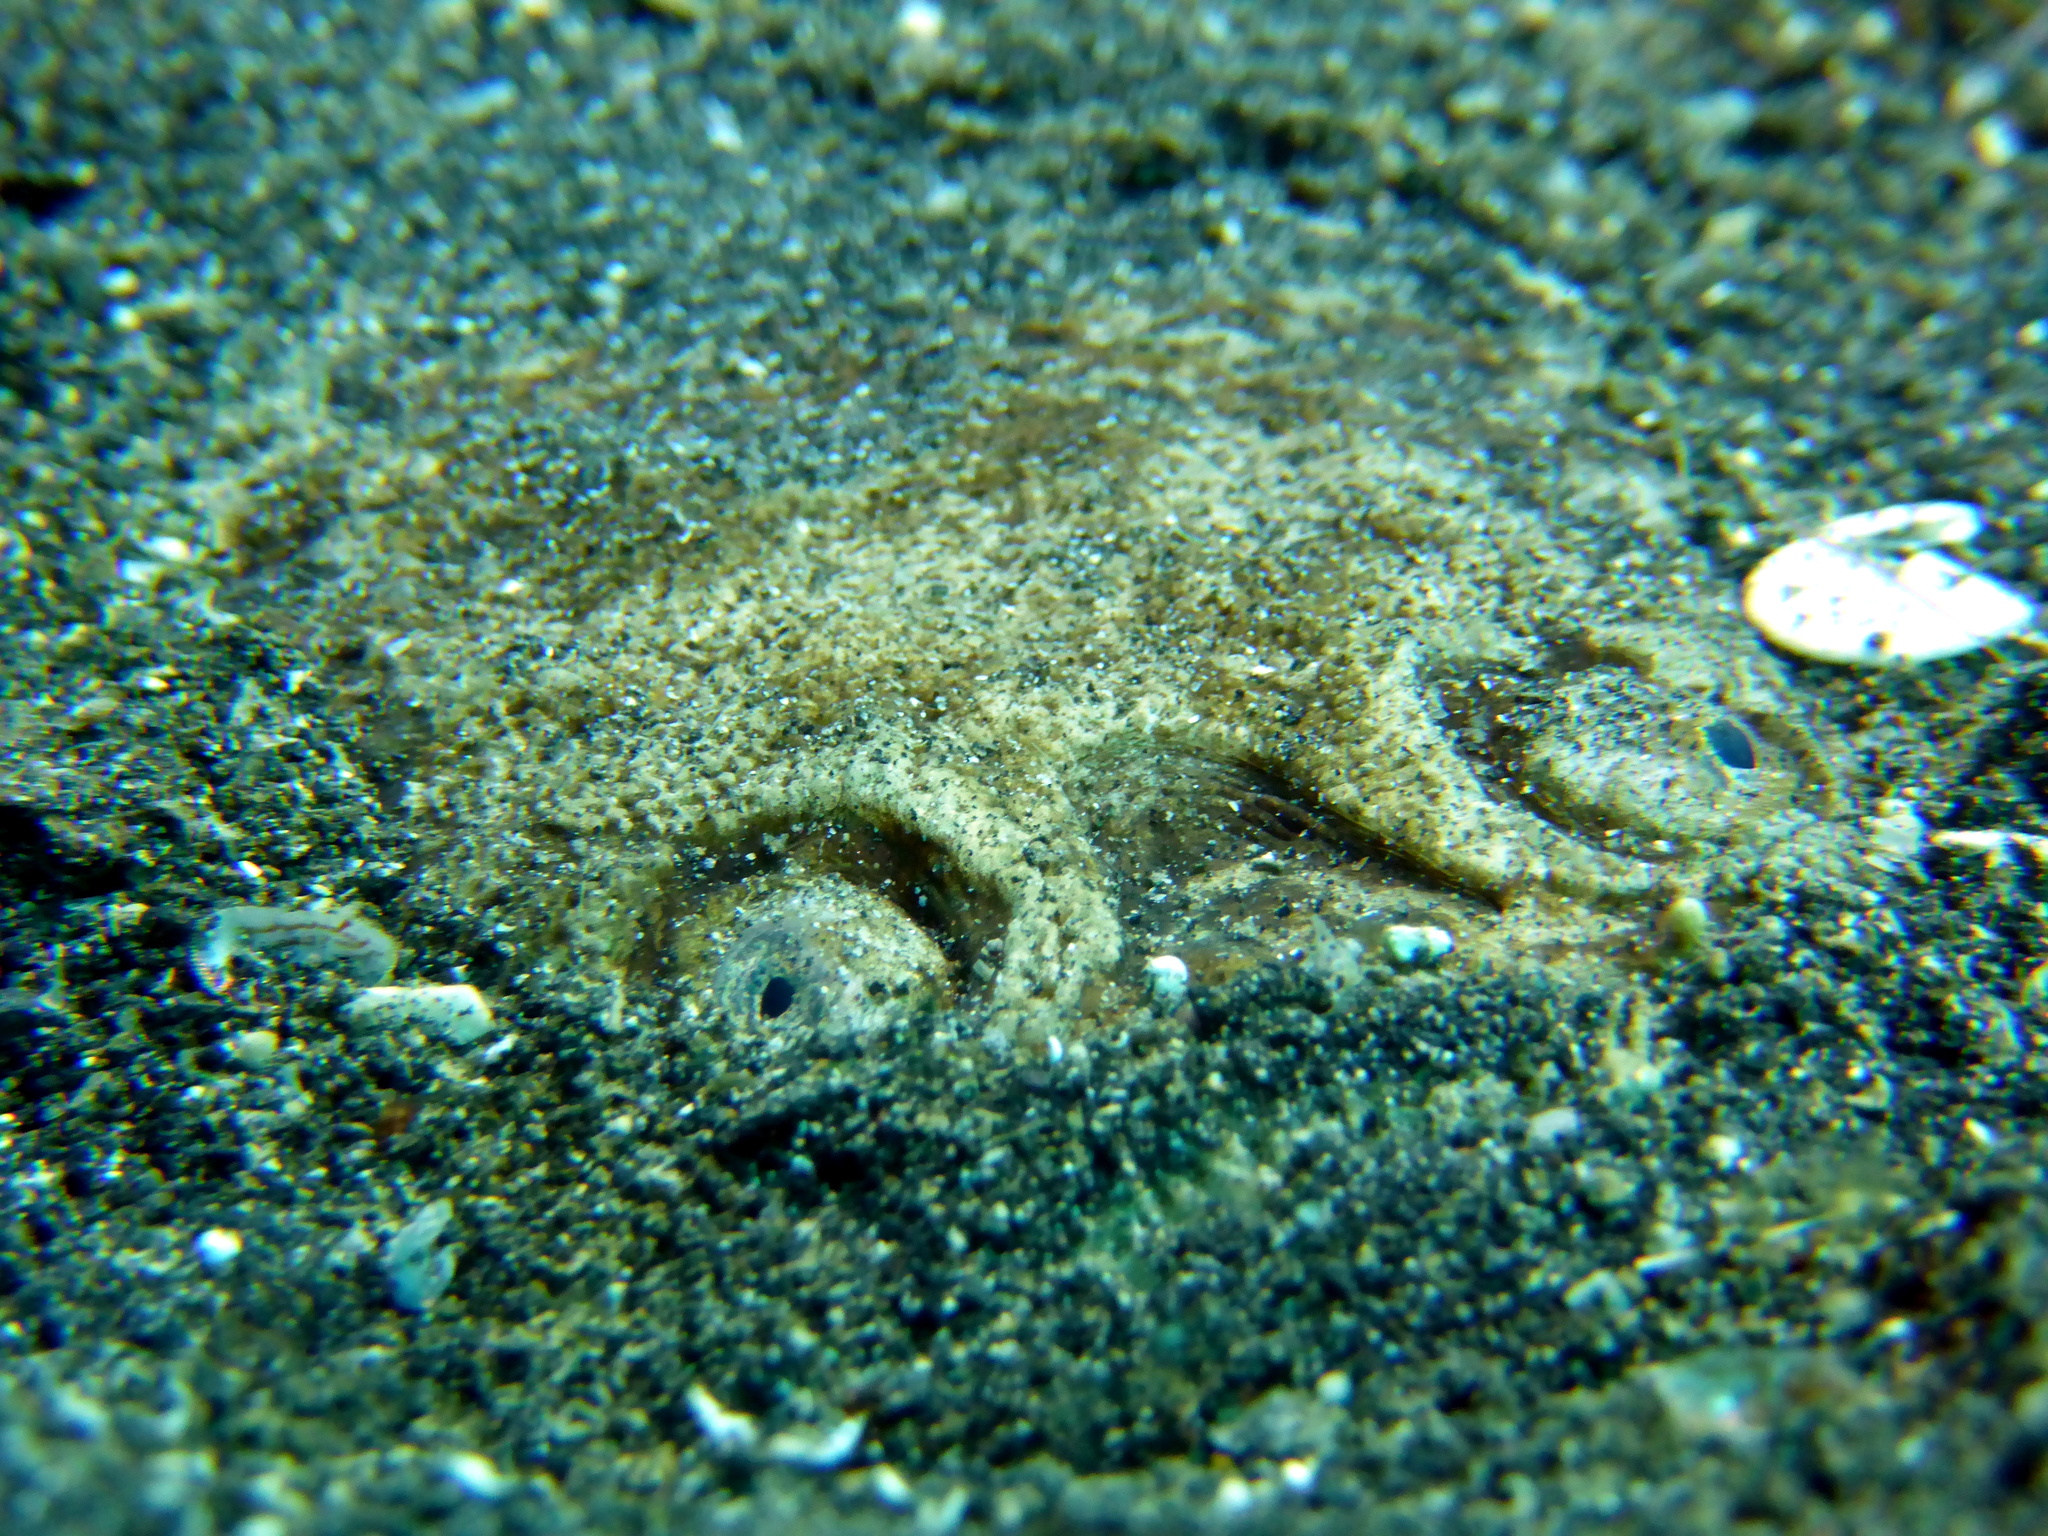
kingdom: Animalia
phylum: Chordata
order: Perciformes
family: Uranoscopidae
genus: Uranoscopus
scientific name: Uranoscopus bicinctus
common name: Marbled stargazer
